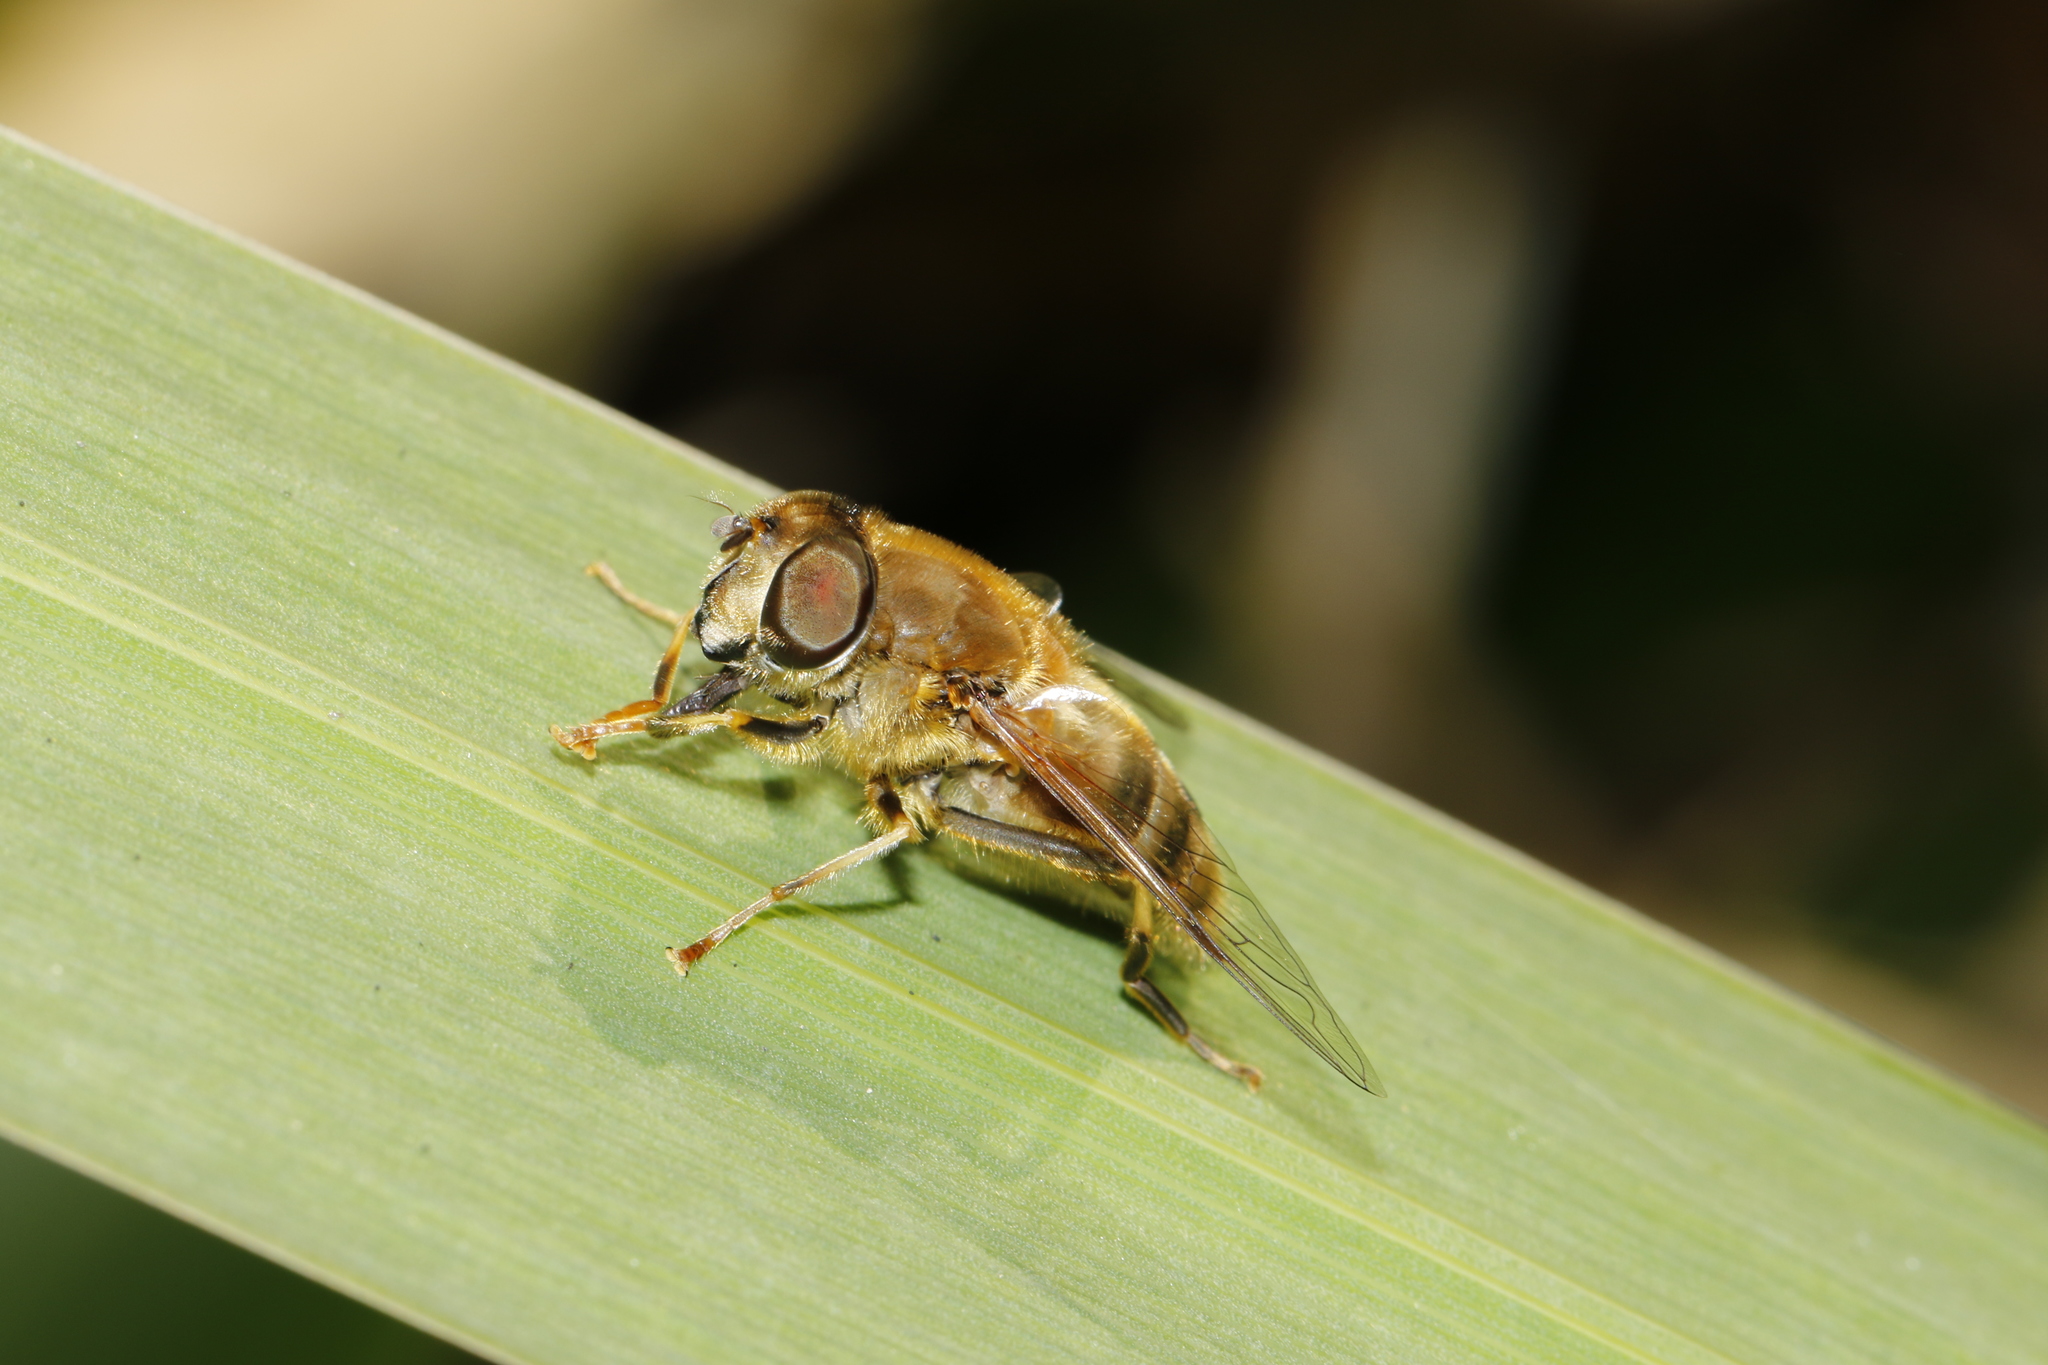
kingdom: Animalia
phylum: Arthropoda
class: Insecta
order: Diptera
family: Syrphidae
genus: Eristalis
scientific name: Eristalis pertinax
